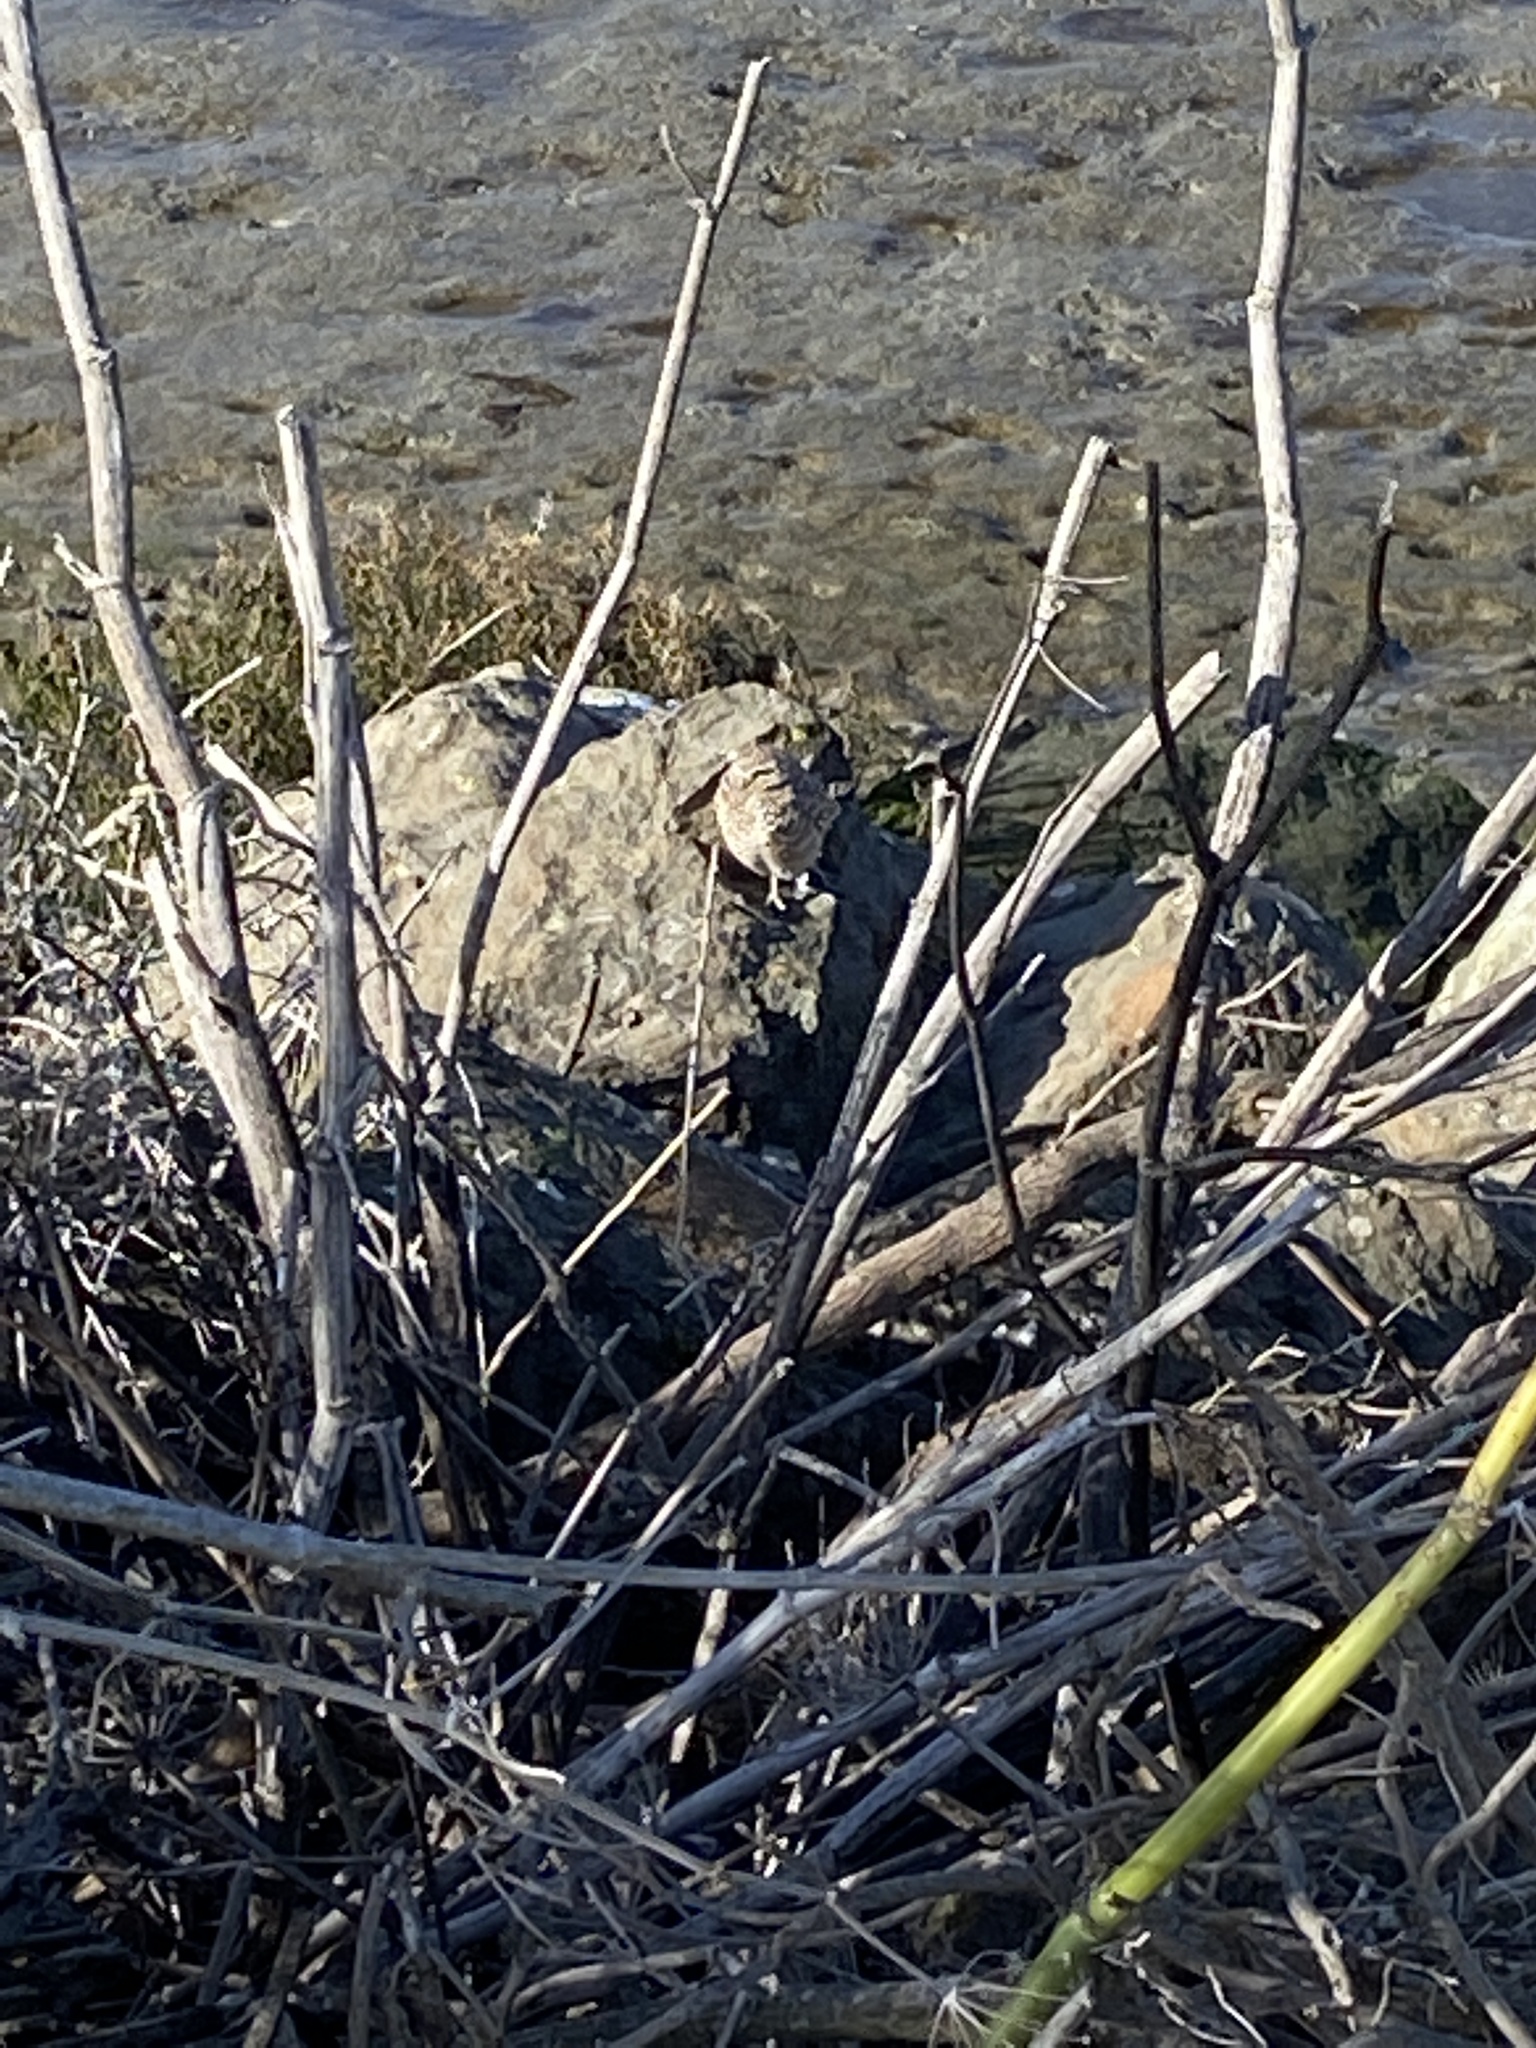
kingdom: Animalia
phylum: Chordata
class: Aves
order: Strigiformes
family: Strigidae
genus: Athene
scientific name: Athene cunicularia
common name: Burrowing owl
